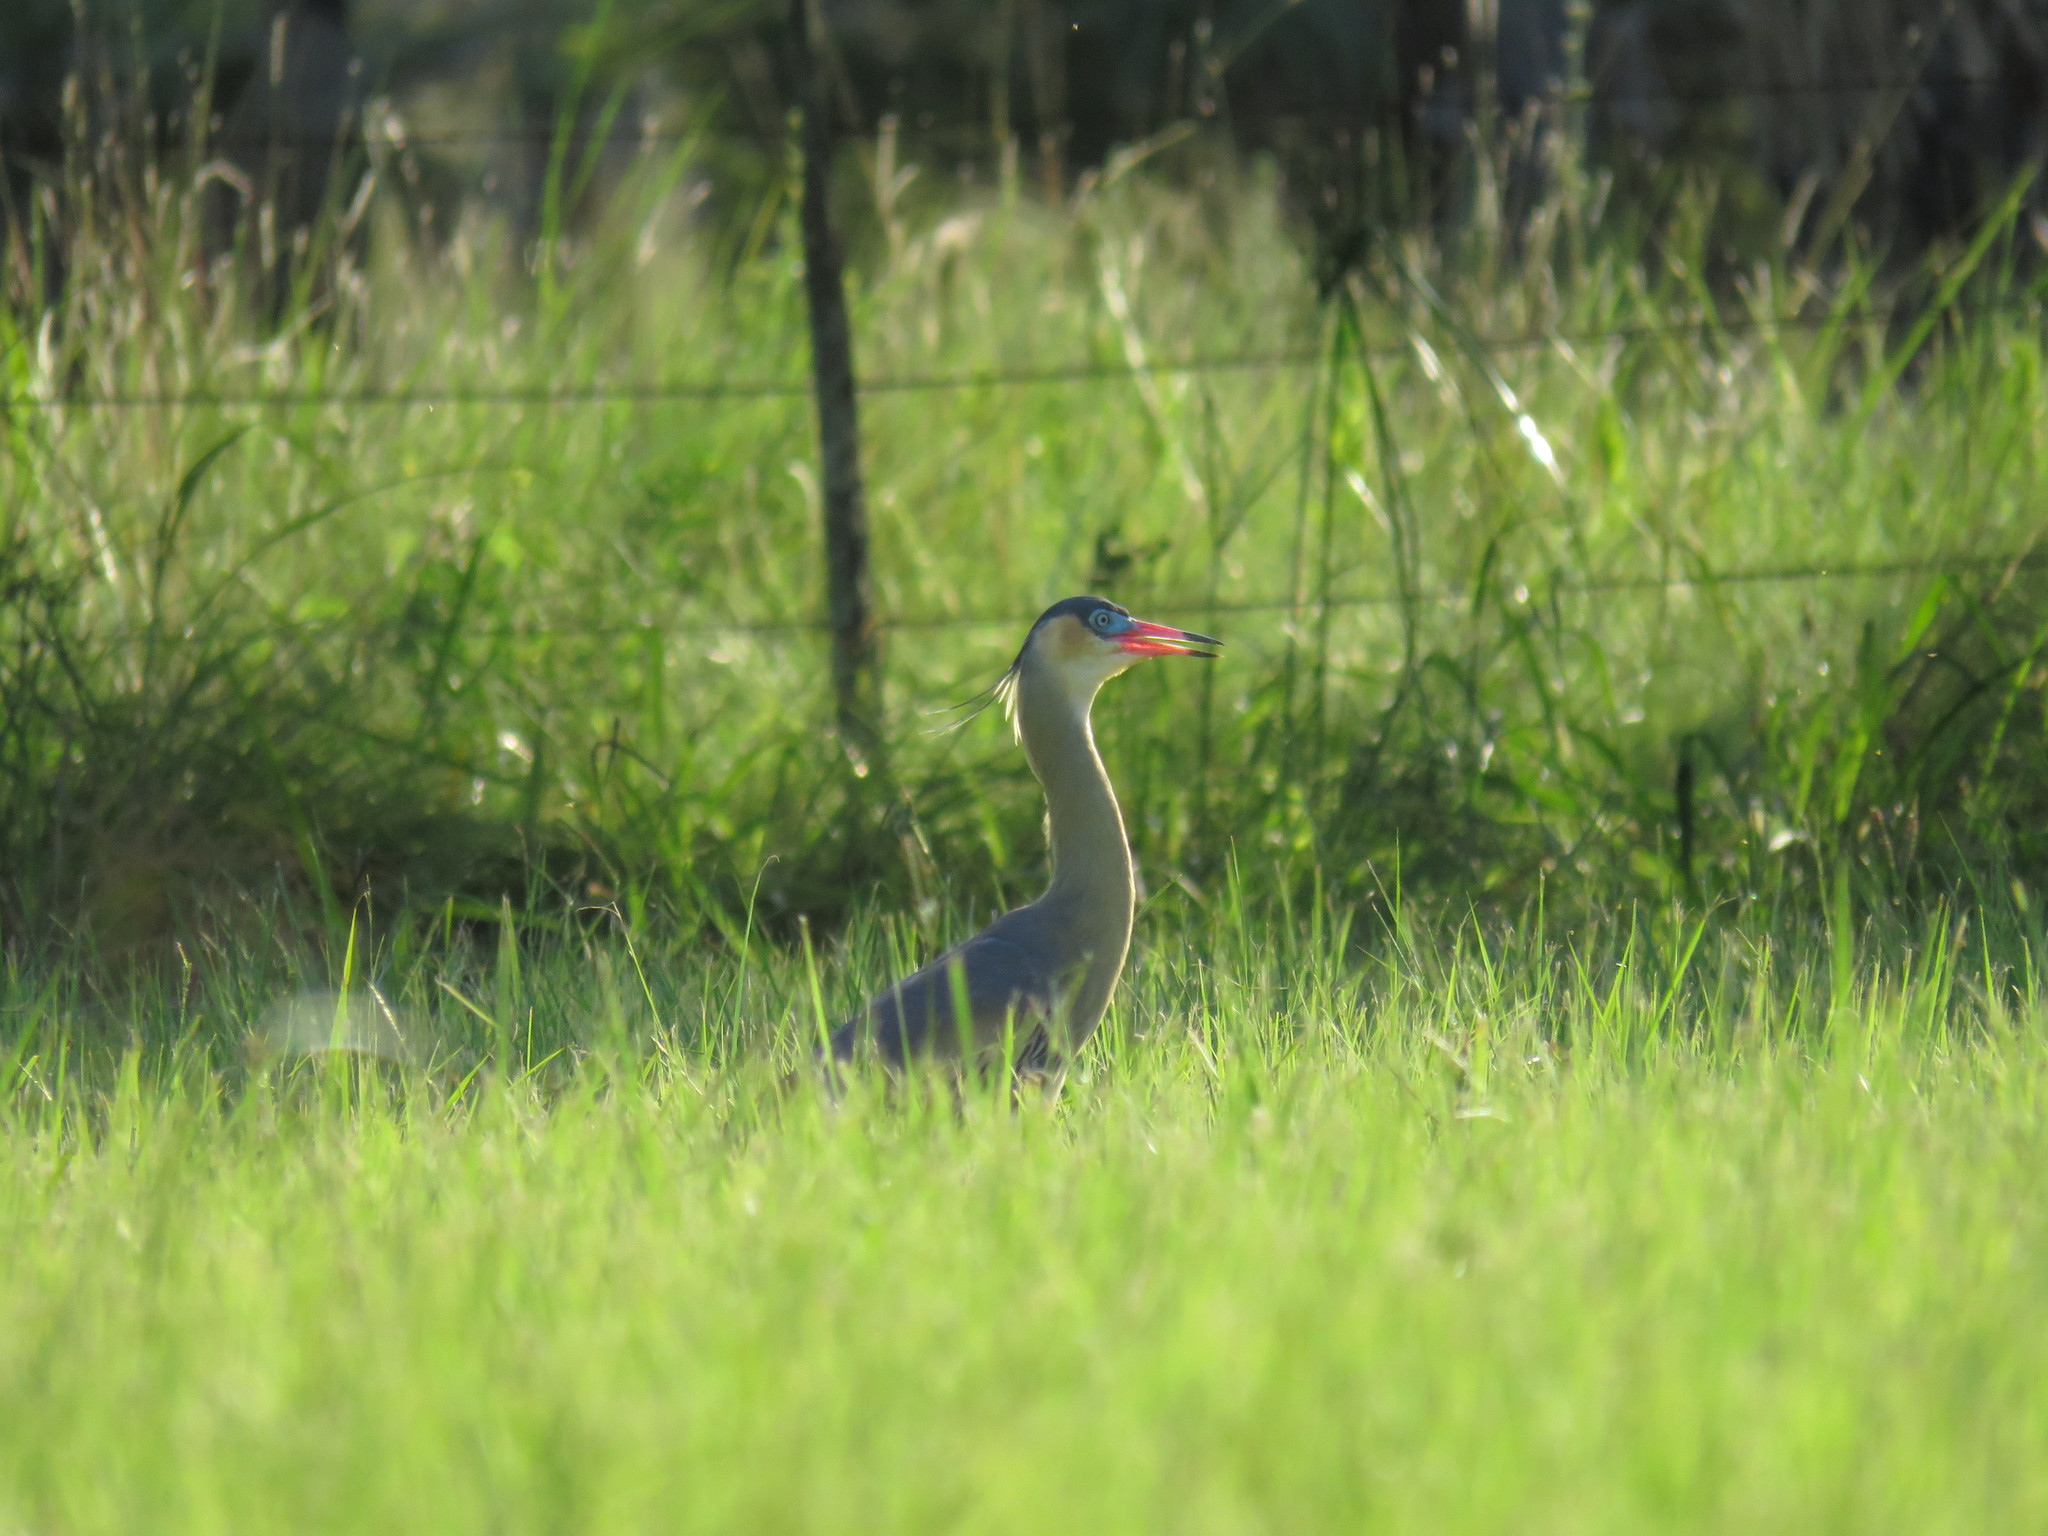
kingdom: Animalia
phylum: Chordata
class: Aves
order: Pelecaniformes
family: Ardeidae
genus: Syrigma
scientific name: Syrigma sibilatrix
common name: Whistling heron
